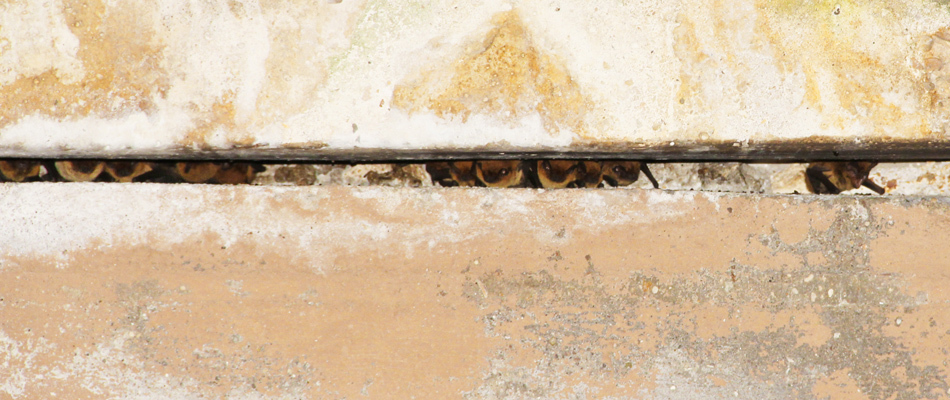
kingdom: Animalia
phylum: Chordata
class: Mammalia
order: Chiroptera
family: Vespertilionidae
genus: Pipistrellus
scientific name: Pipistrellus kuhlii
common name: Kuhl's pipistrelle
